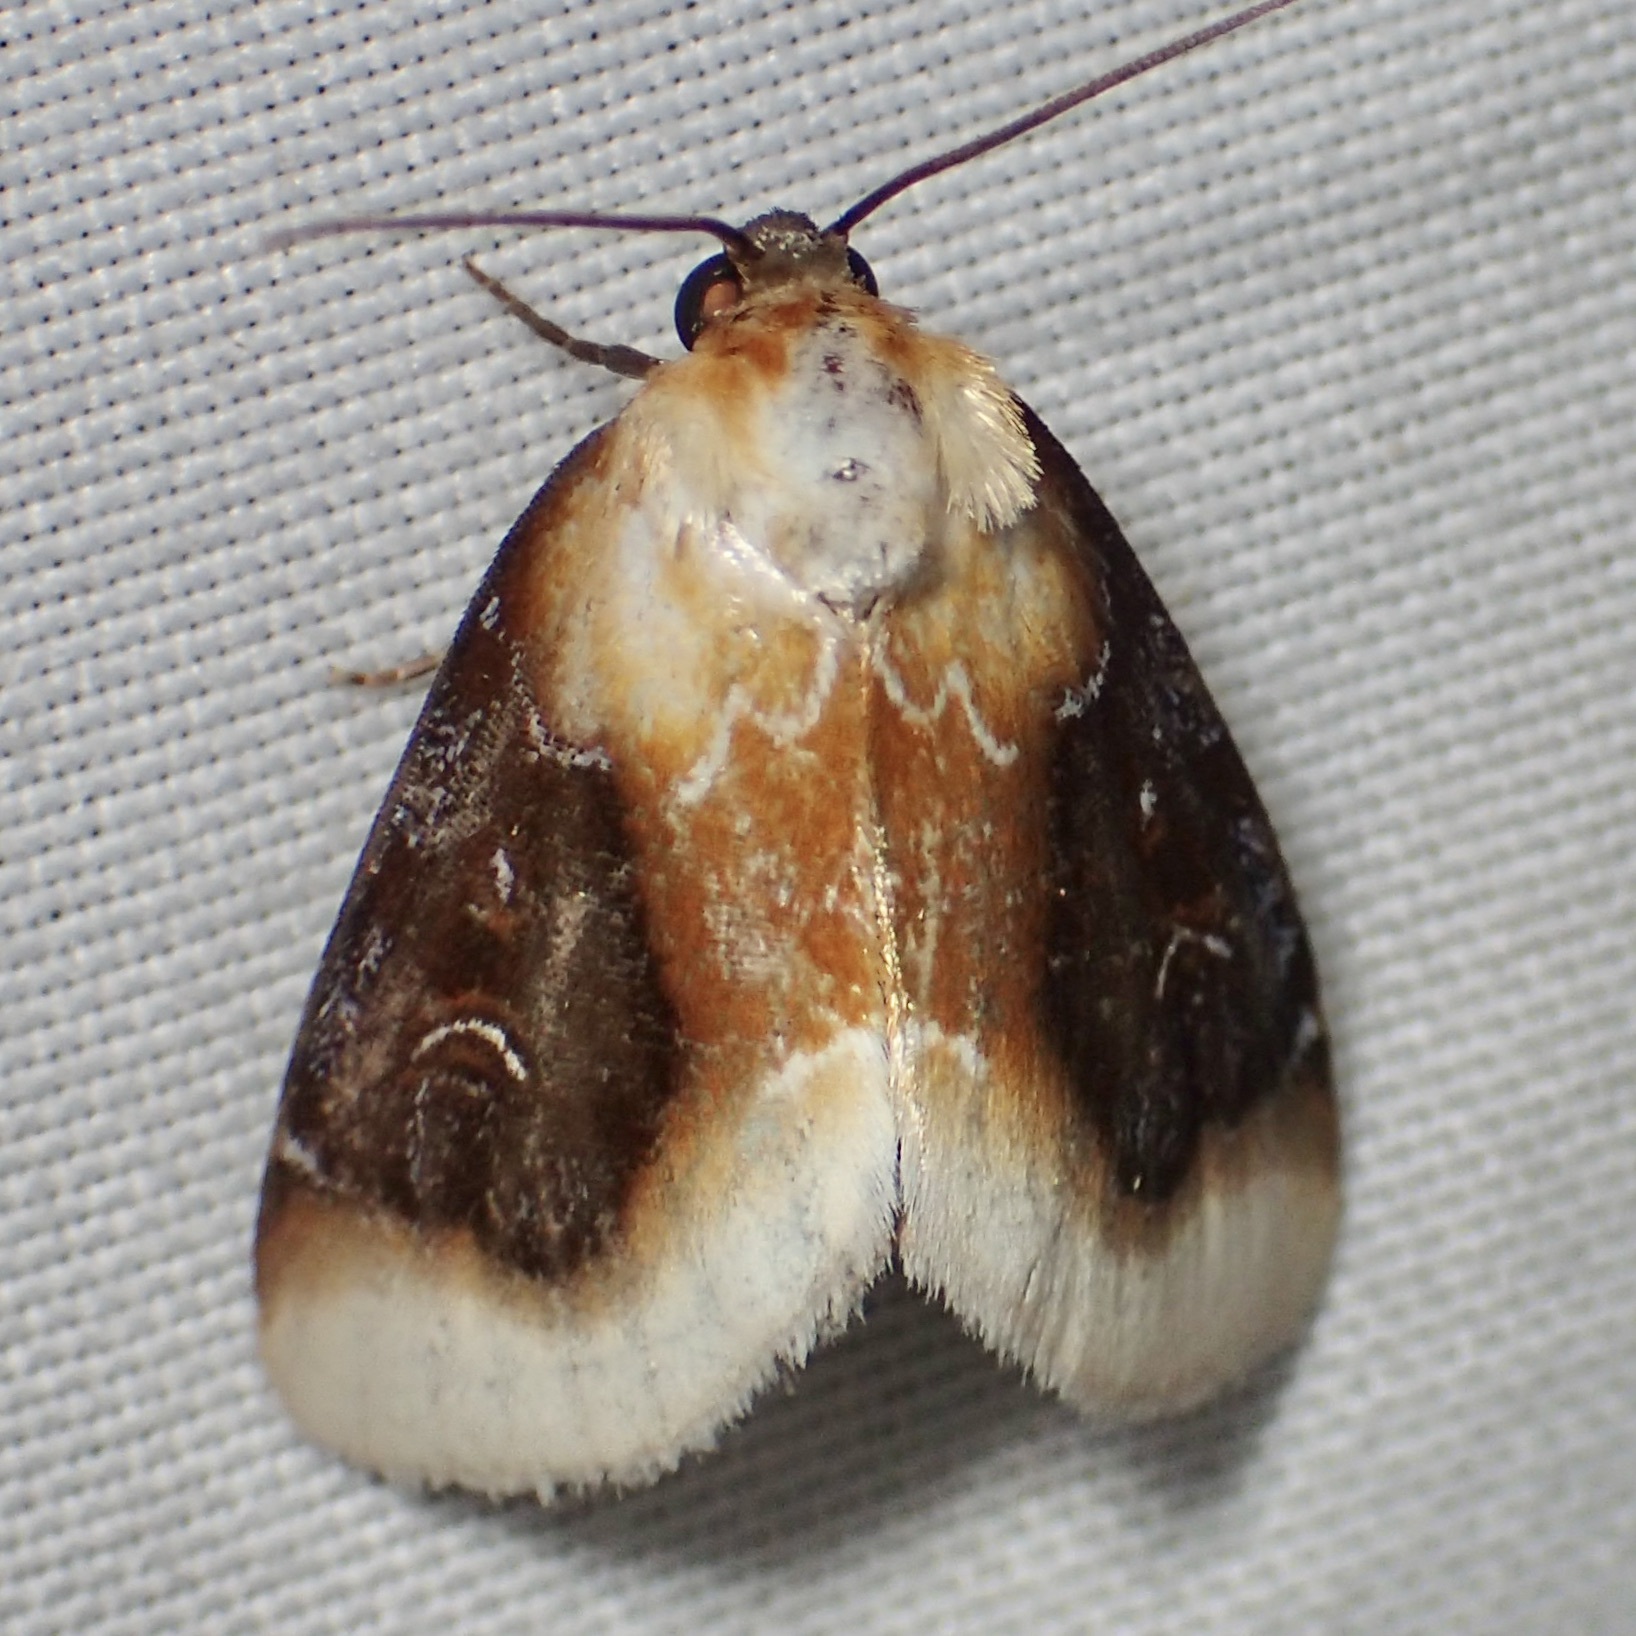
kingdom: Animalia
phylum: Arthropoda
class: Insecta
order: Lepidoptera
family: Noctuidae
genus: Chrysoecia
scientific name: Chrysoecia scira
